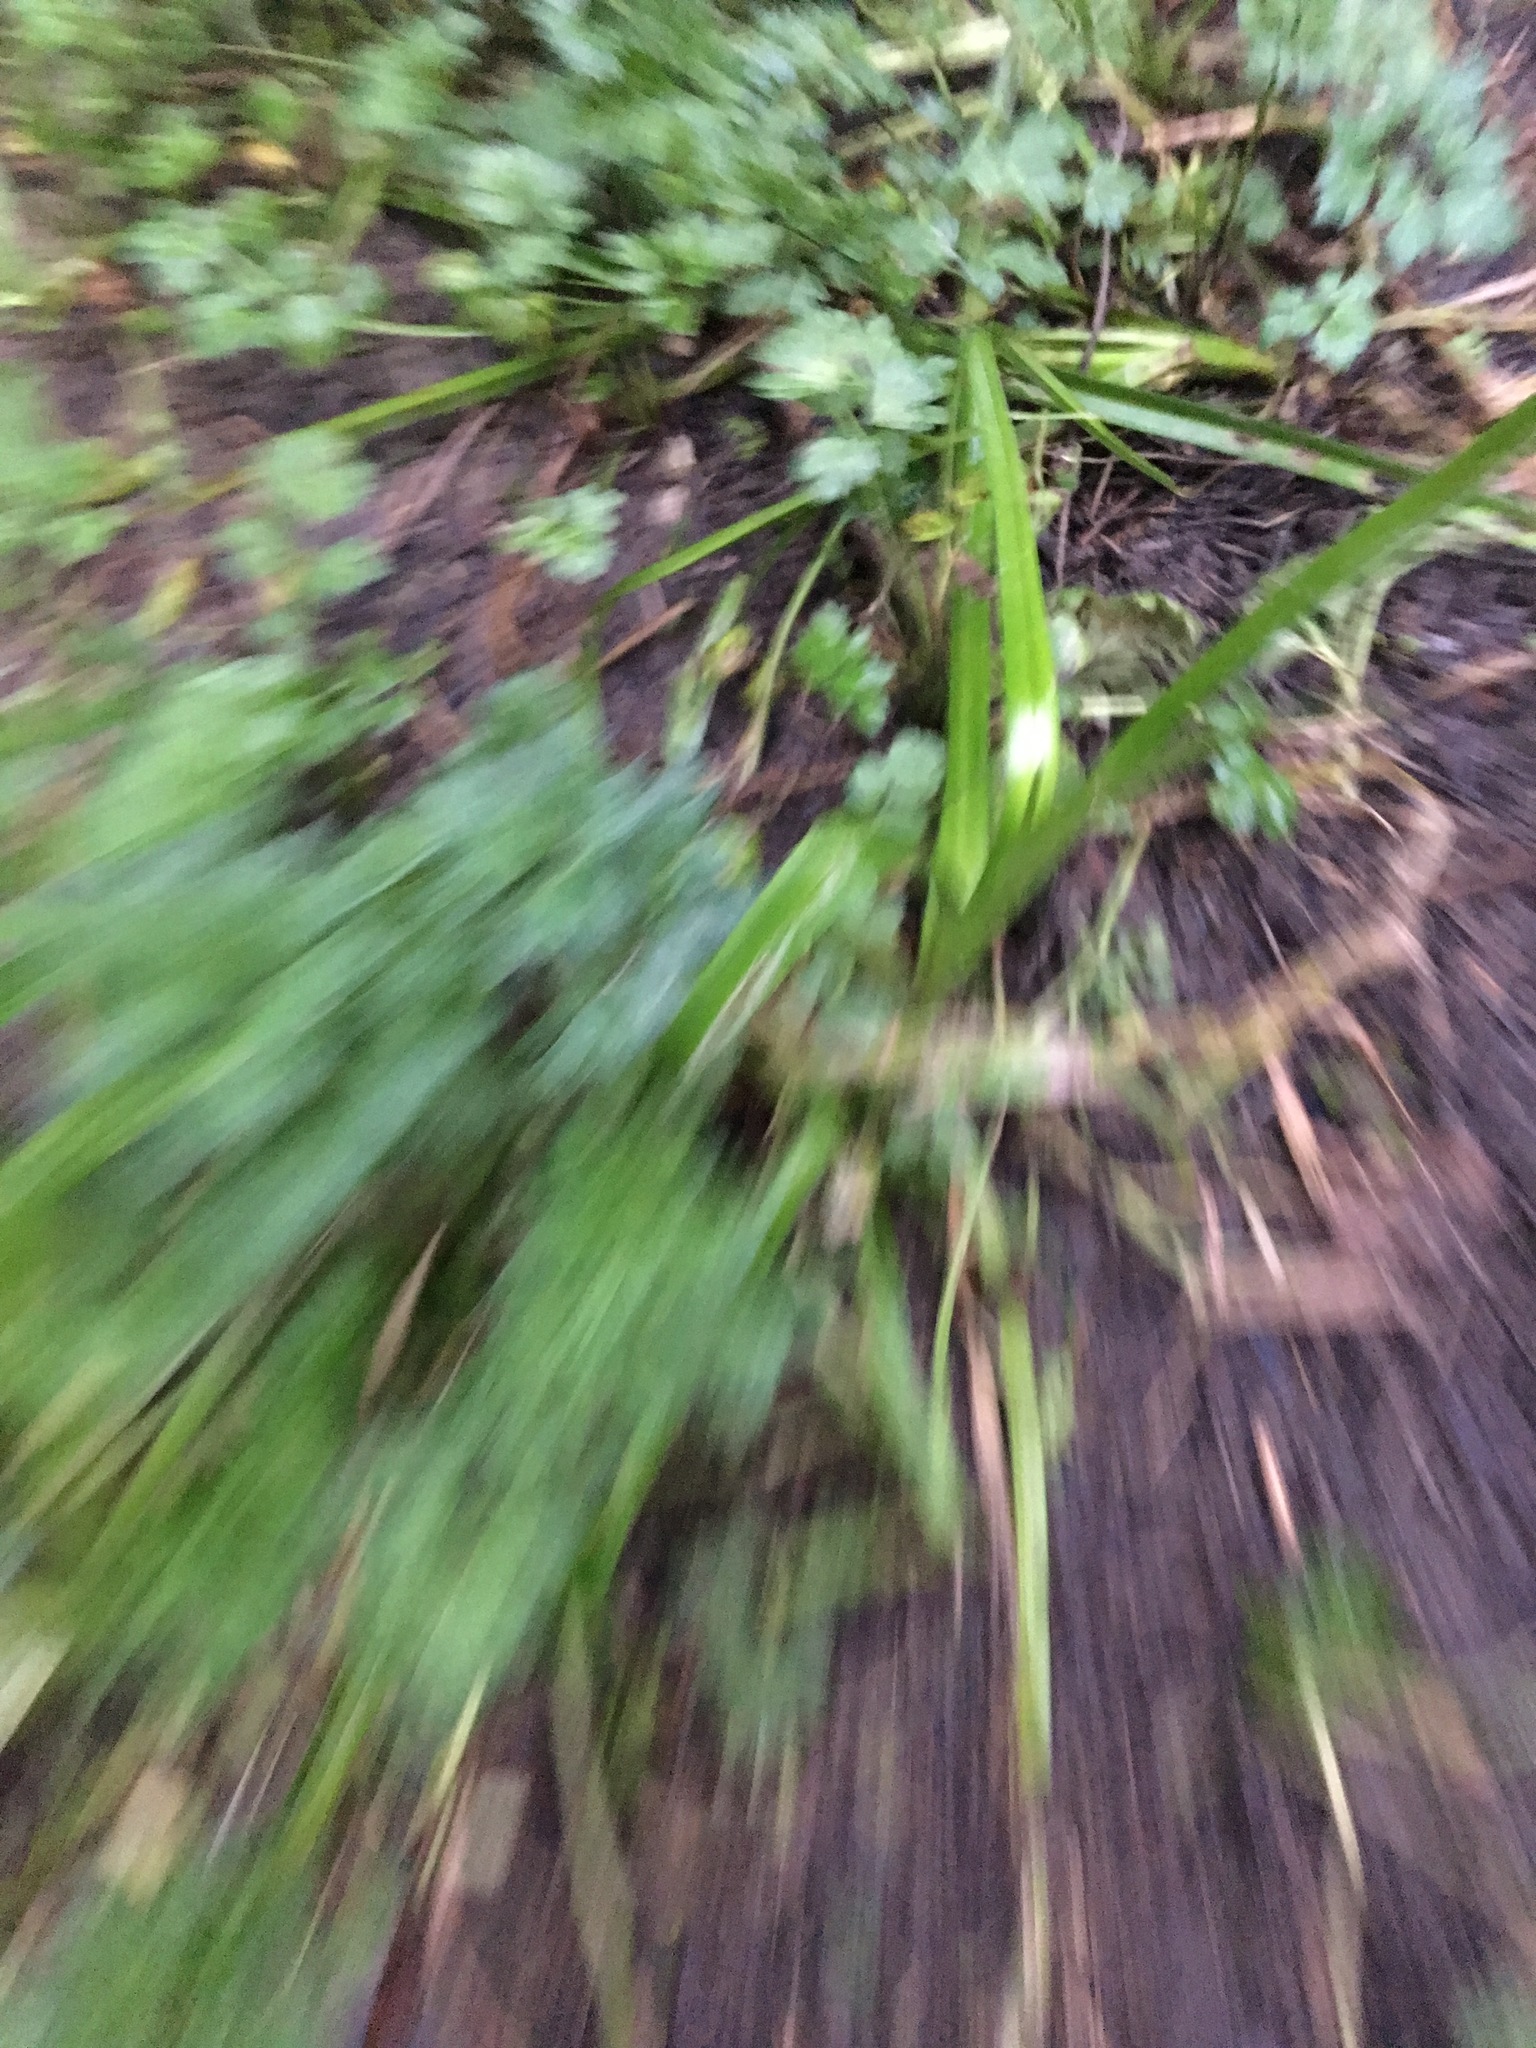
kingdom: Plantae
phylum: Tracheophyta
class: Liliopsida
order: Poales
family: Cyperaceae
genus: Cyperus
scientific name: Cyperus eragrostis
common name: Tall flatsedge
